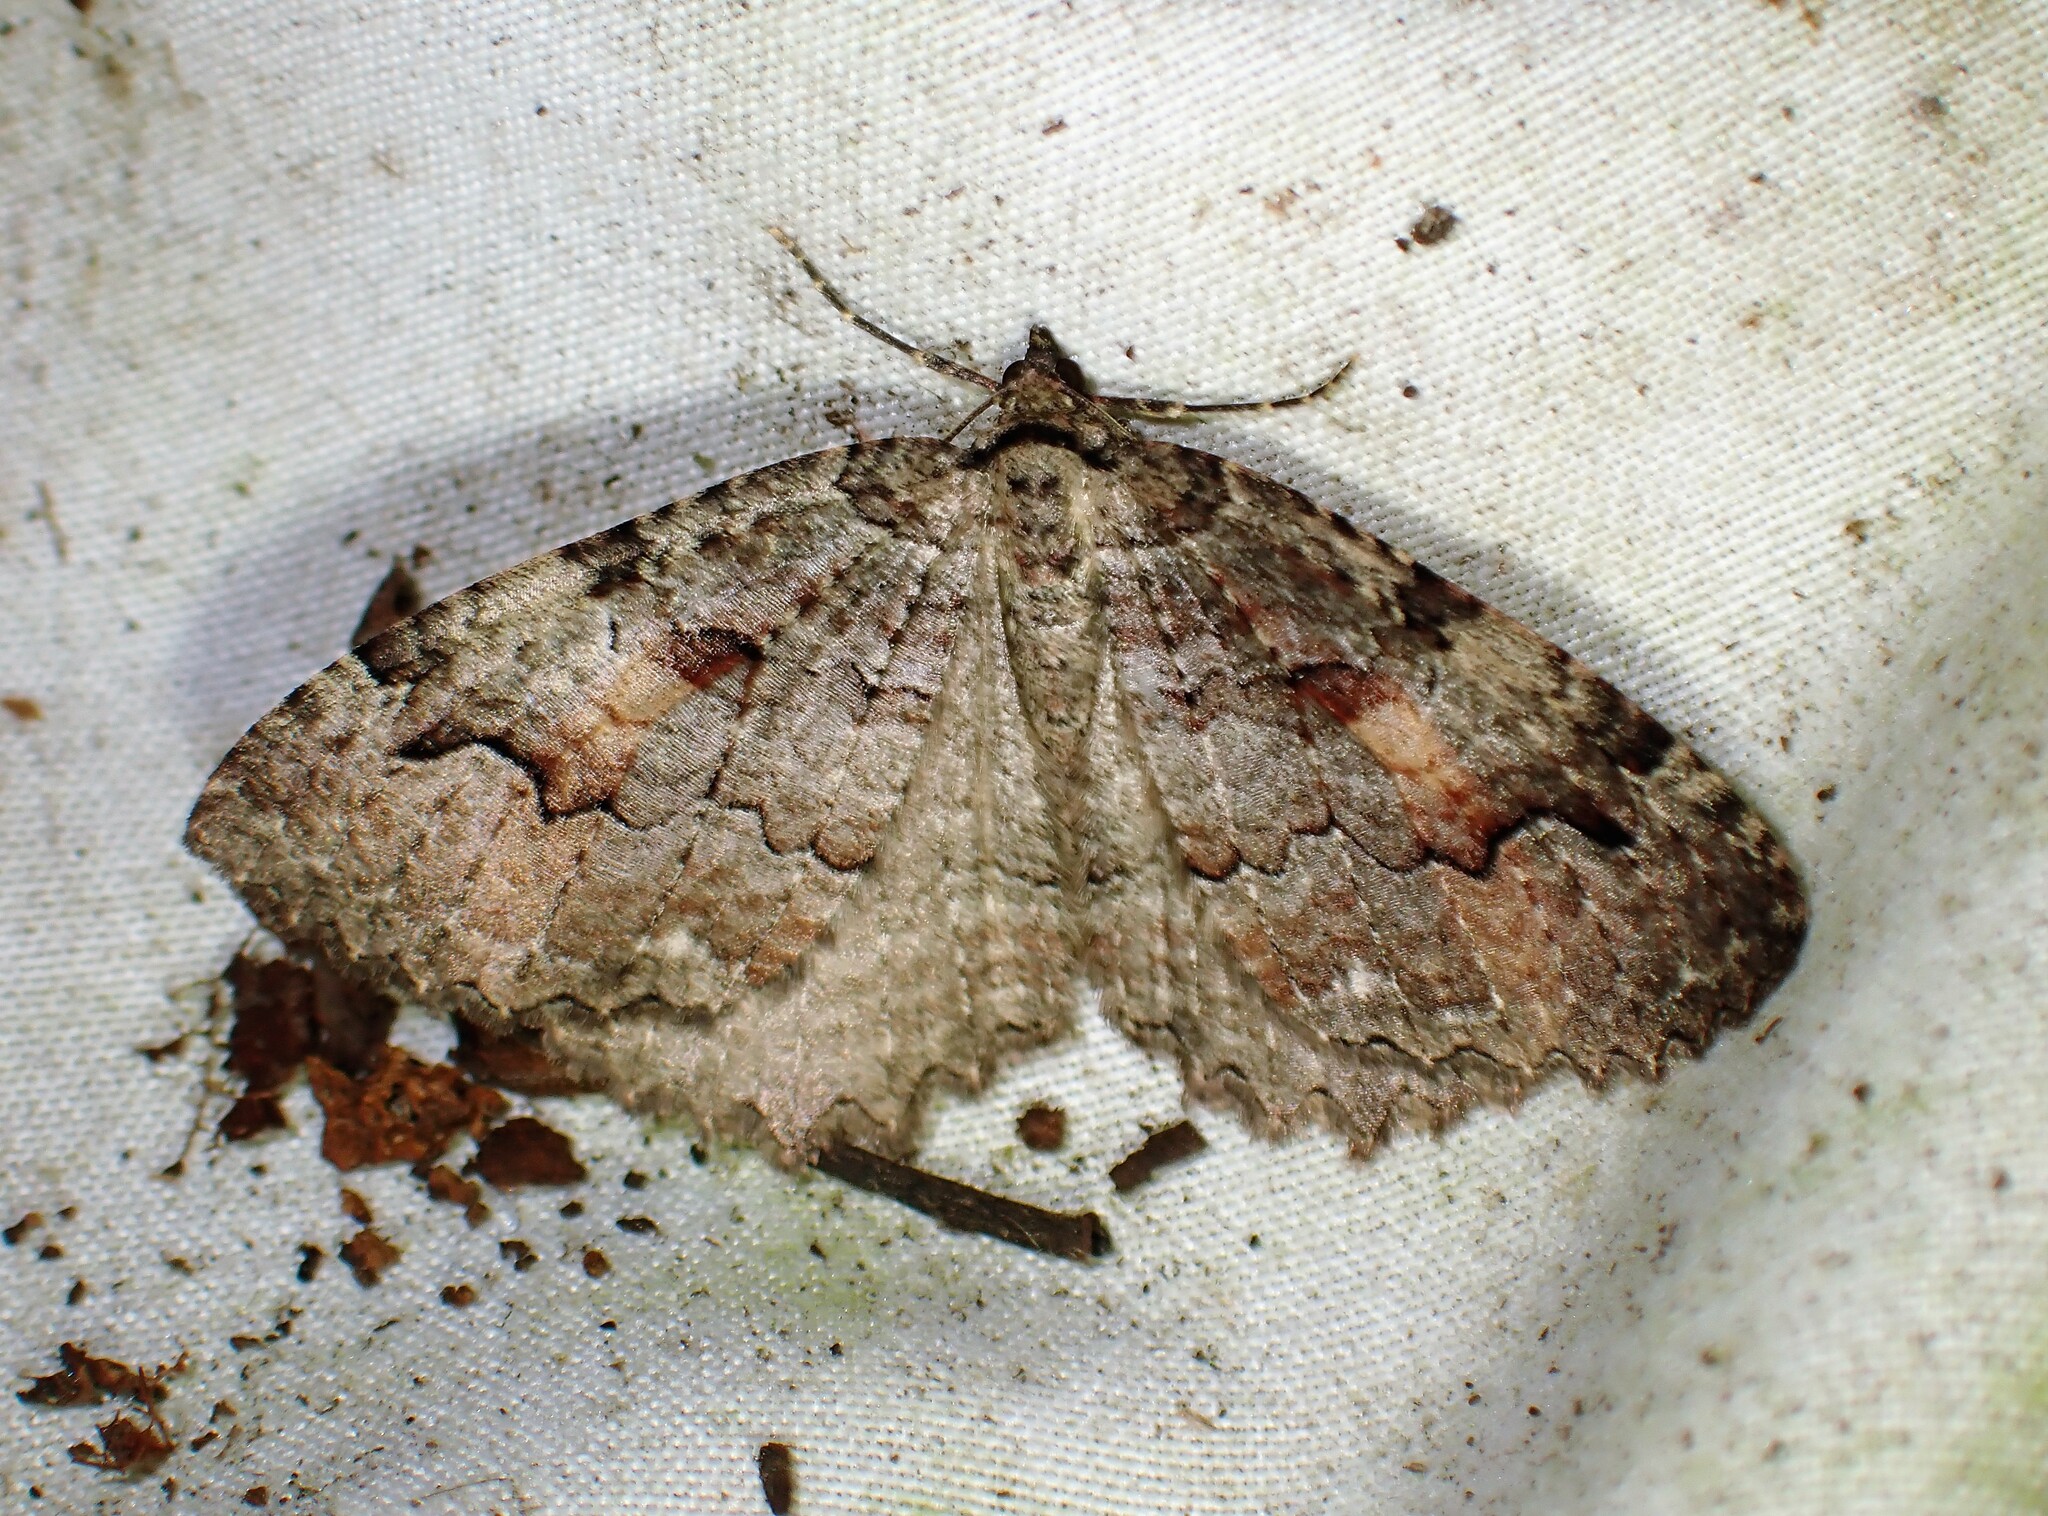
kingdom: Animalia
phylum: Arthropoda
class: Insecta
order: Lepidoptera
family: Geometridae
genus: Triphosa
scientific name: Triphosa haesitata
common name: Tissue moth
